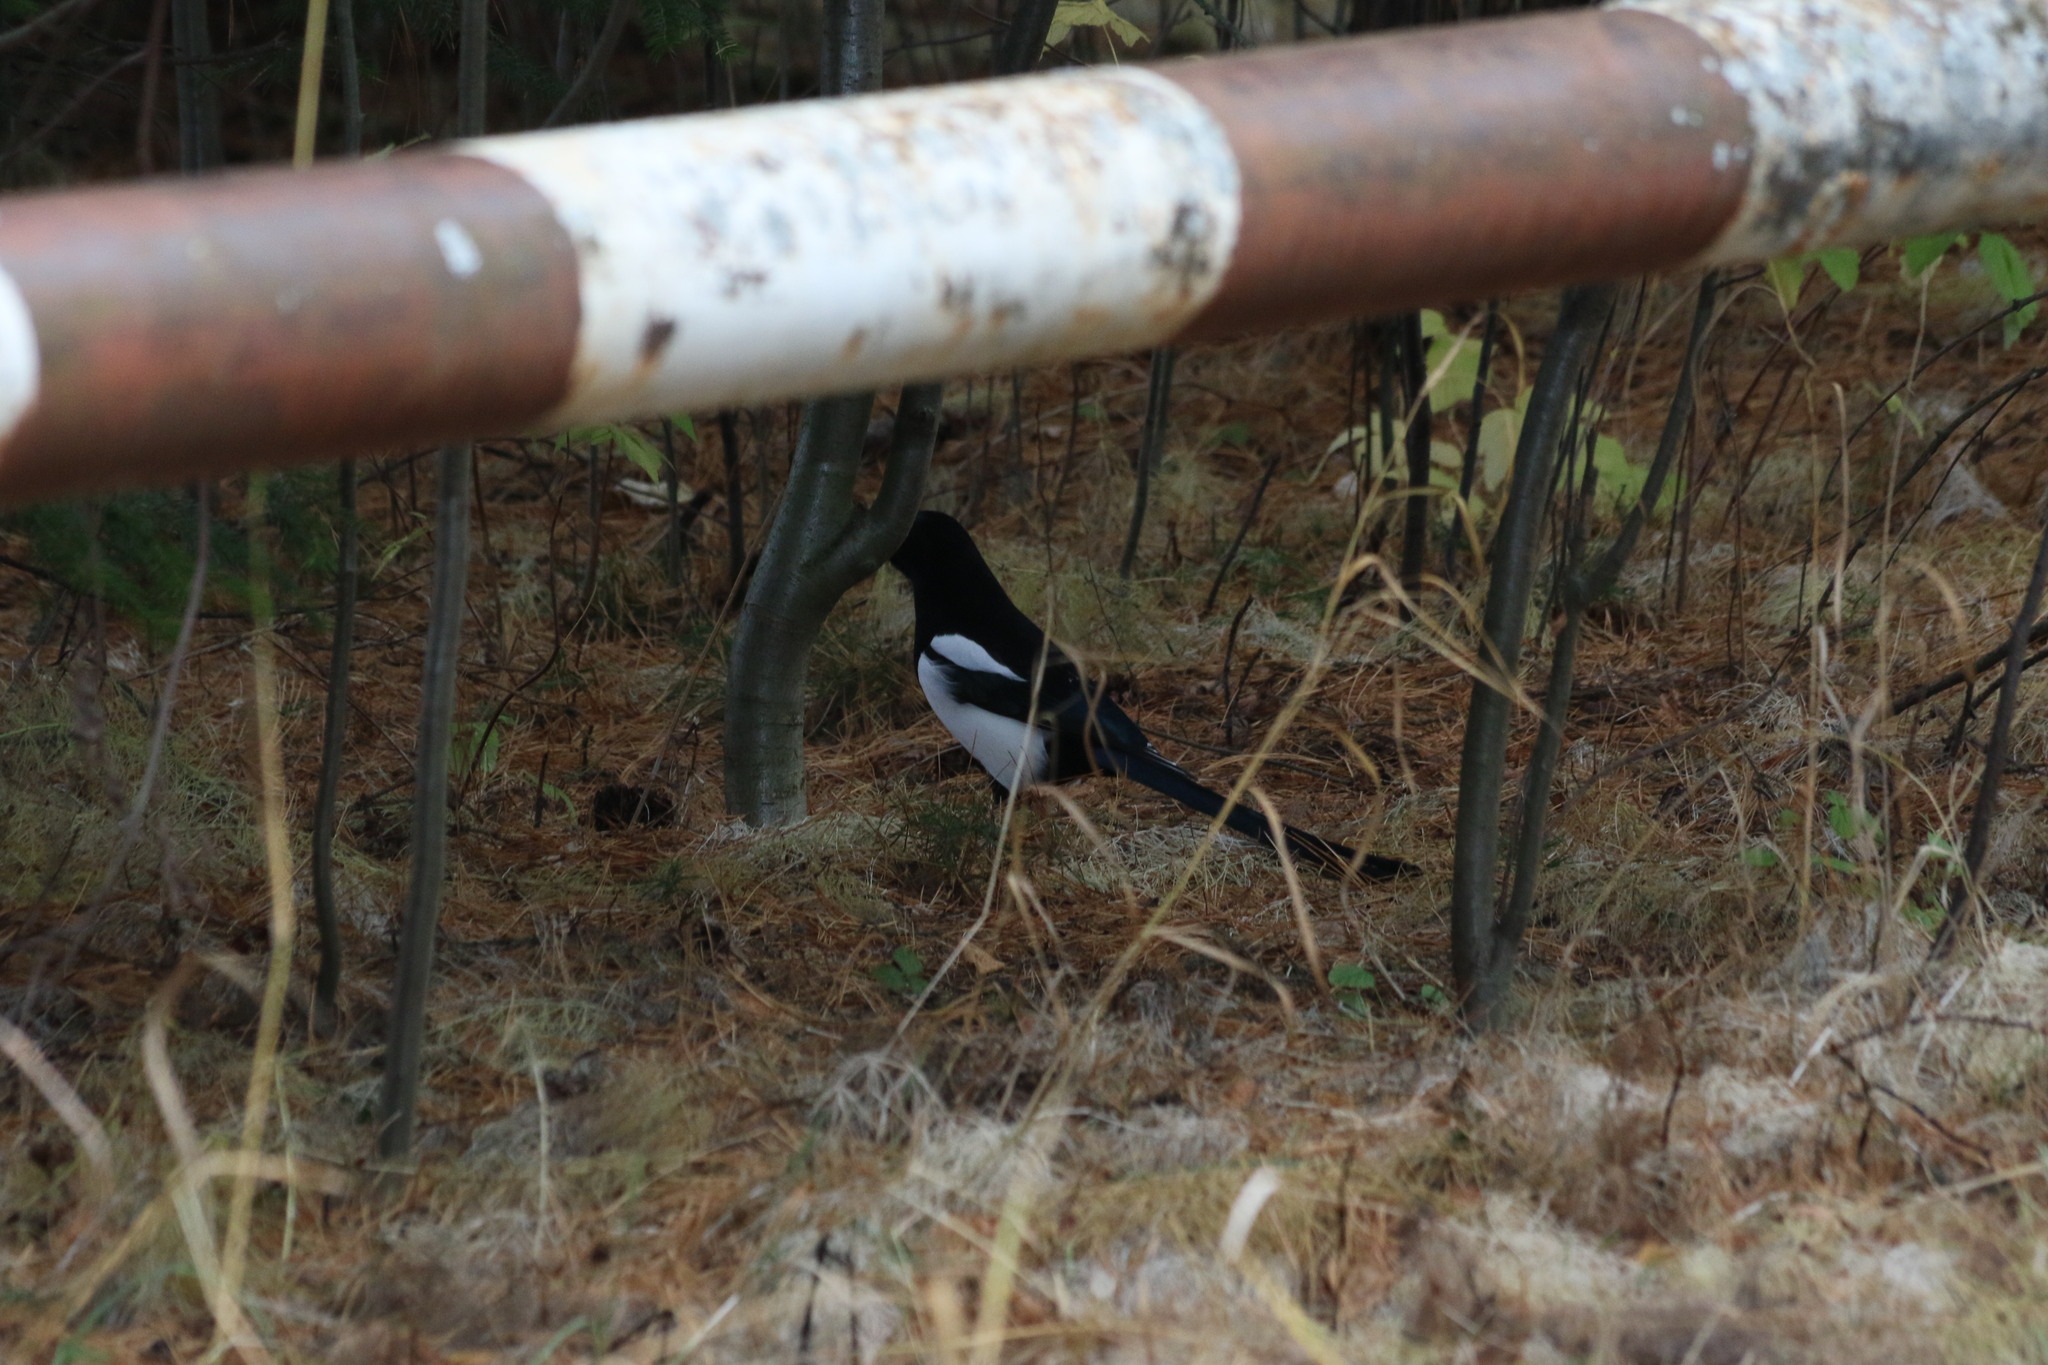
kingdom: Animalia
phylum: Chordata
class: Aves
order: Passeriformes
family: Corvidae
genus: Pica
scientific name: Pica pica
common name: Eurasian magpie
